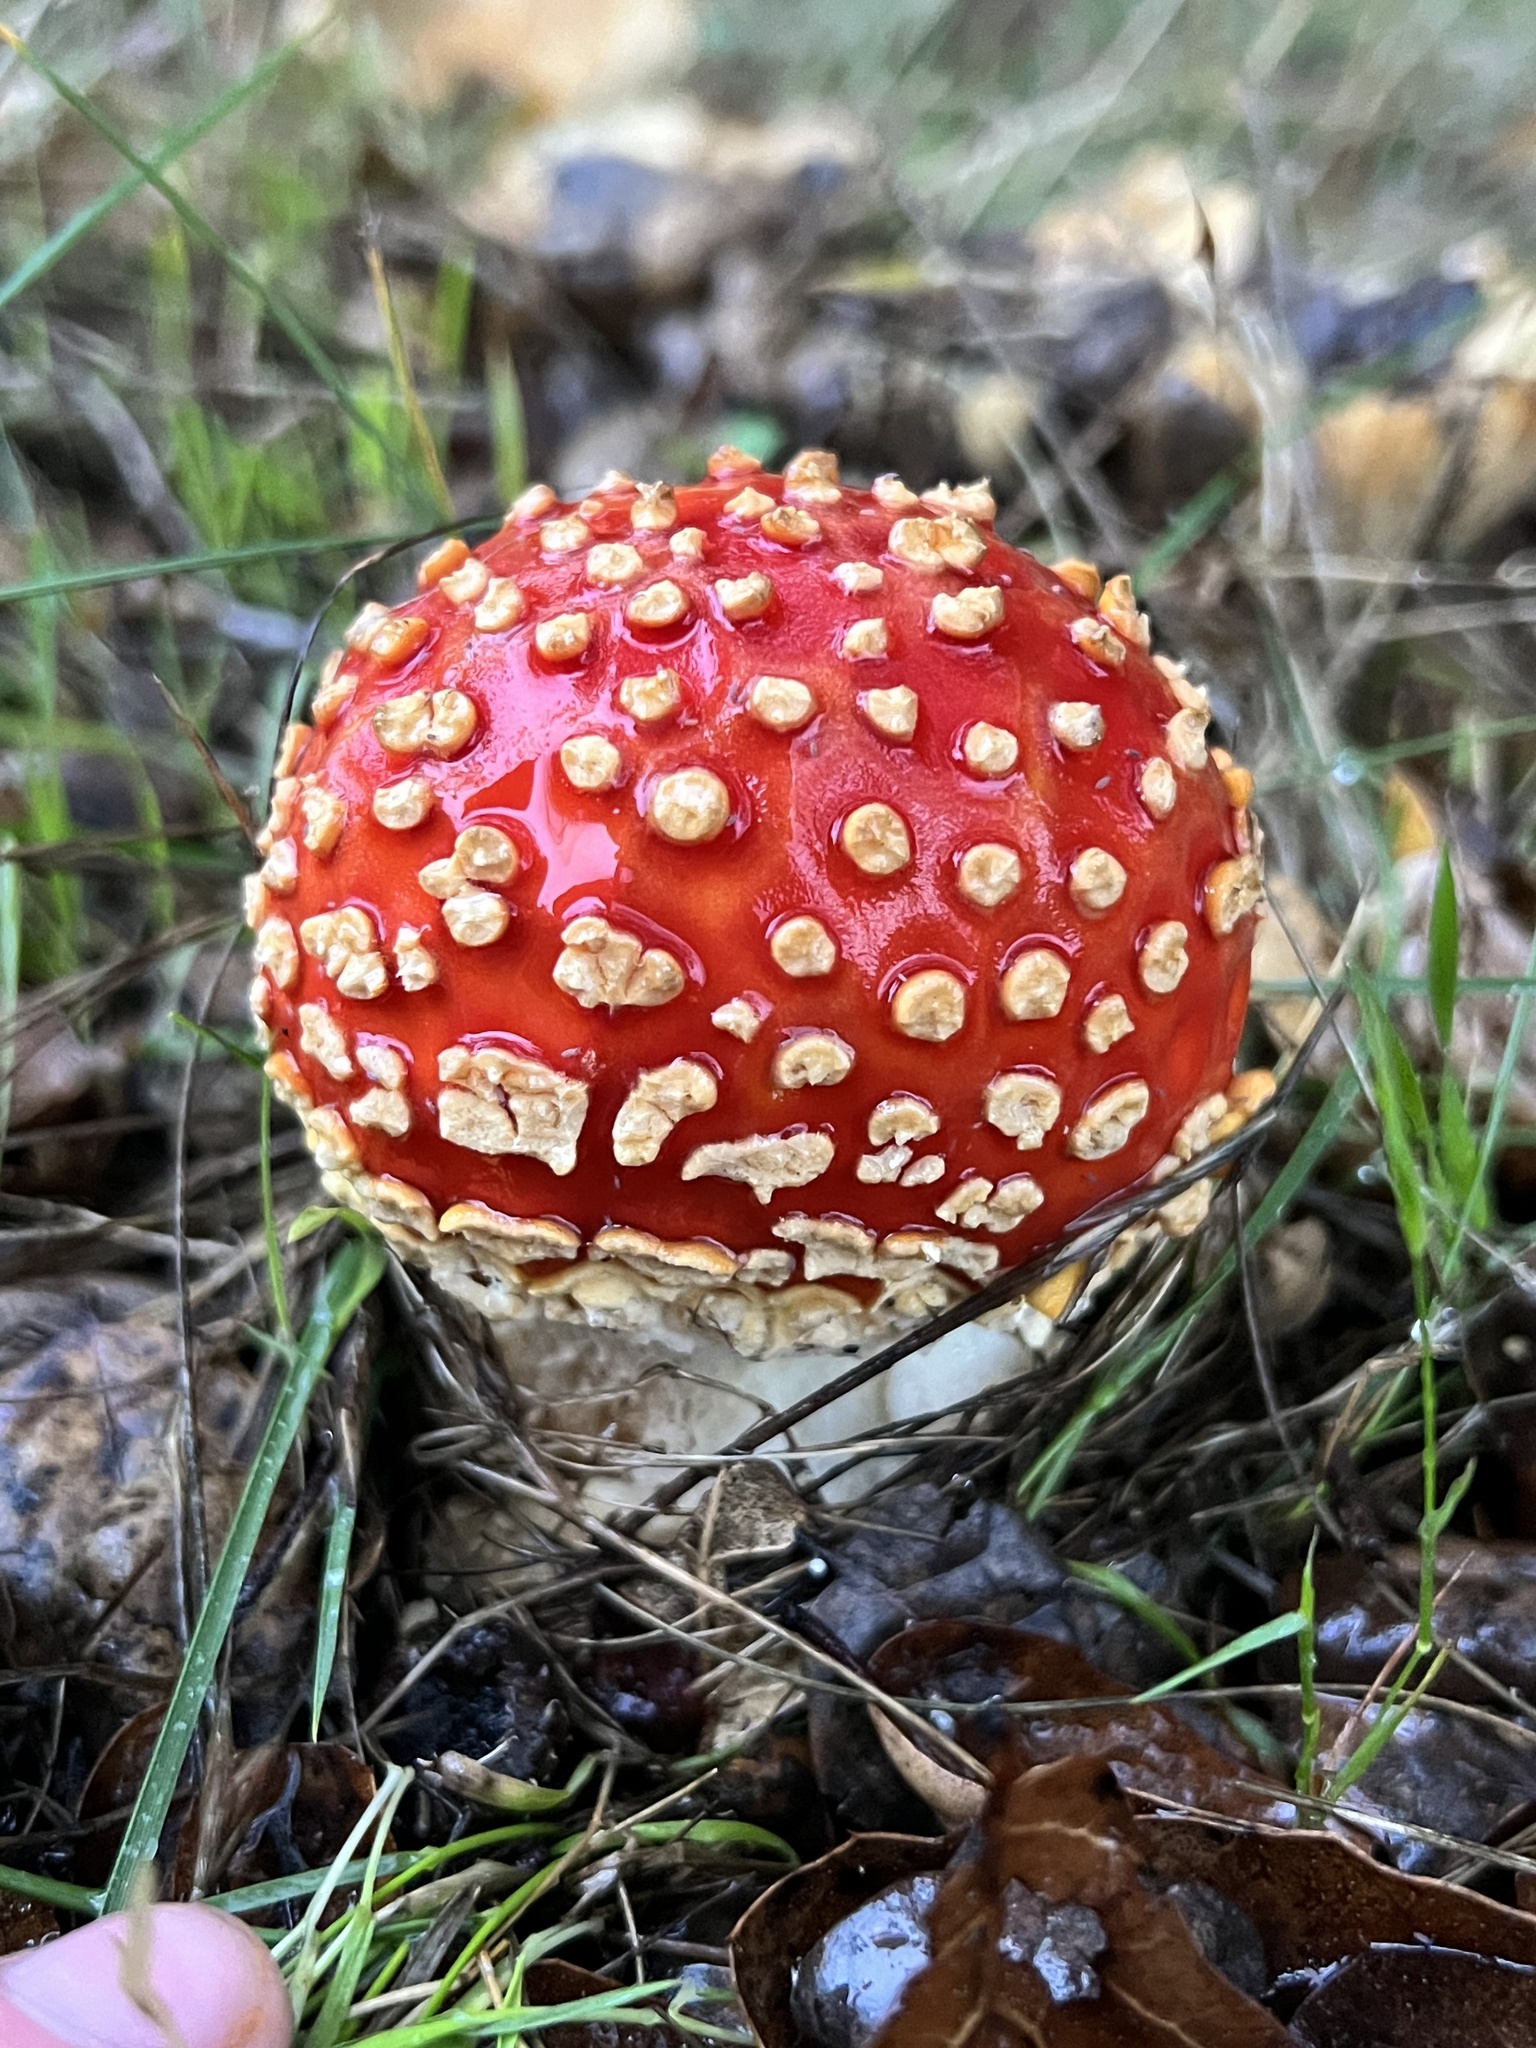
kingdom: Fungi
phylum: Basidiomycota
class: Agaricomycetes
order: Agaricales
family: Amanitaceae
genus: Amanita
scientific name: Amanita muscaria
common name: Fly agaric
